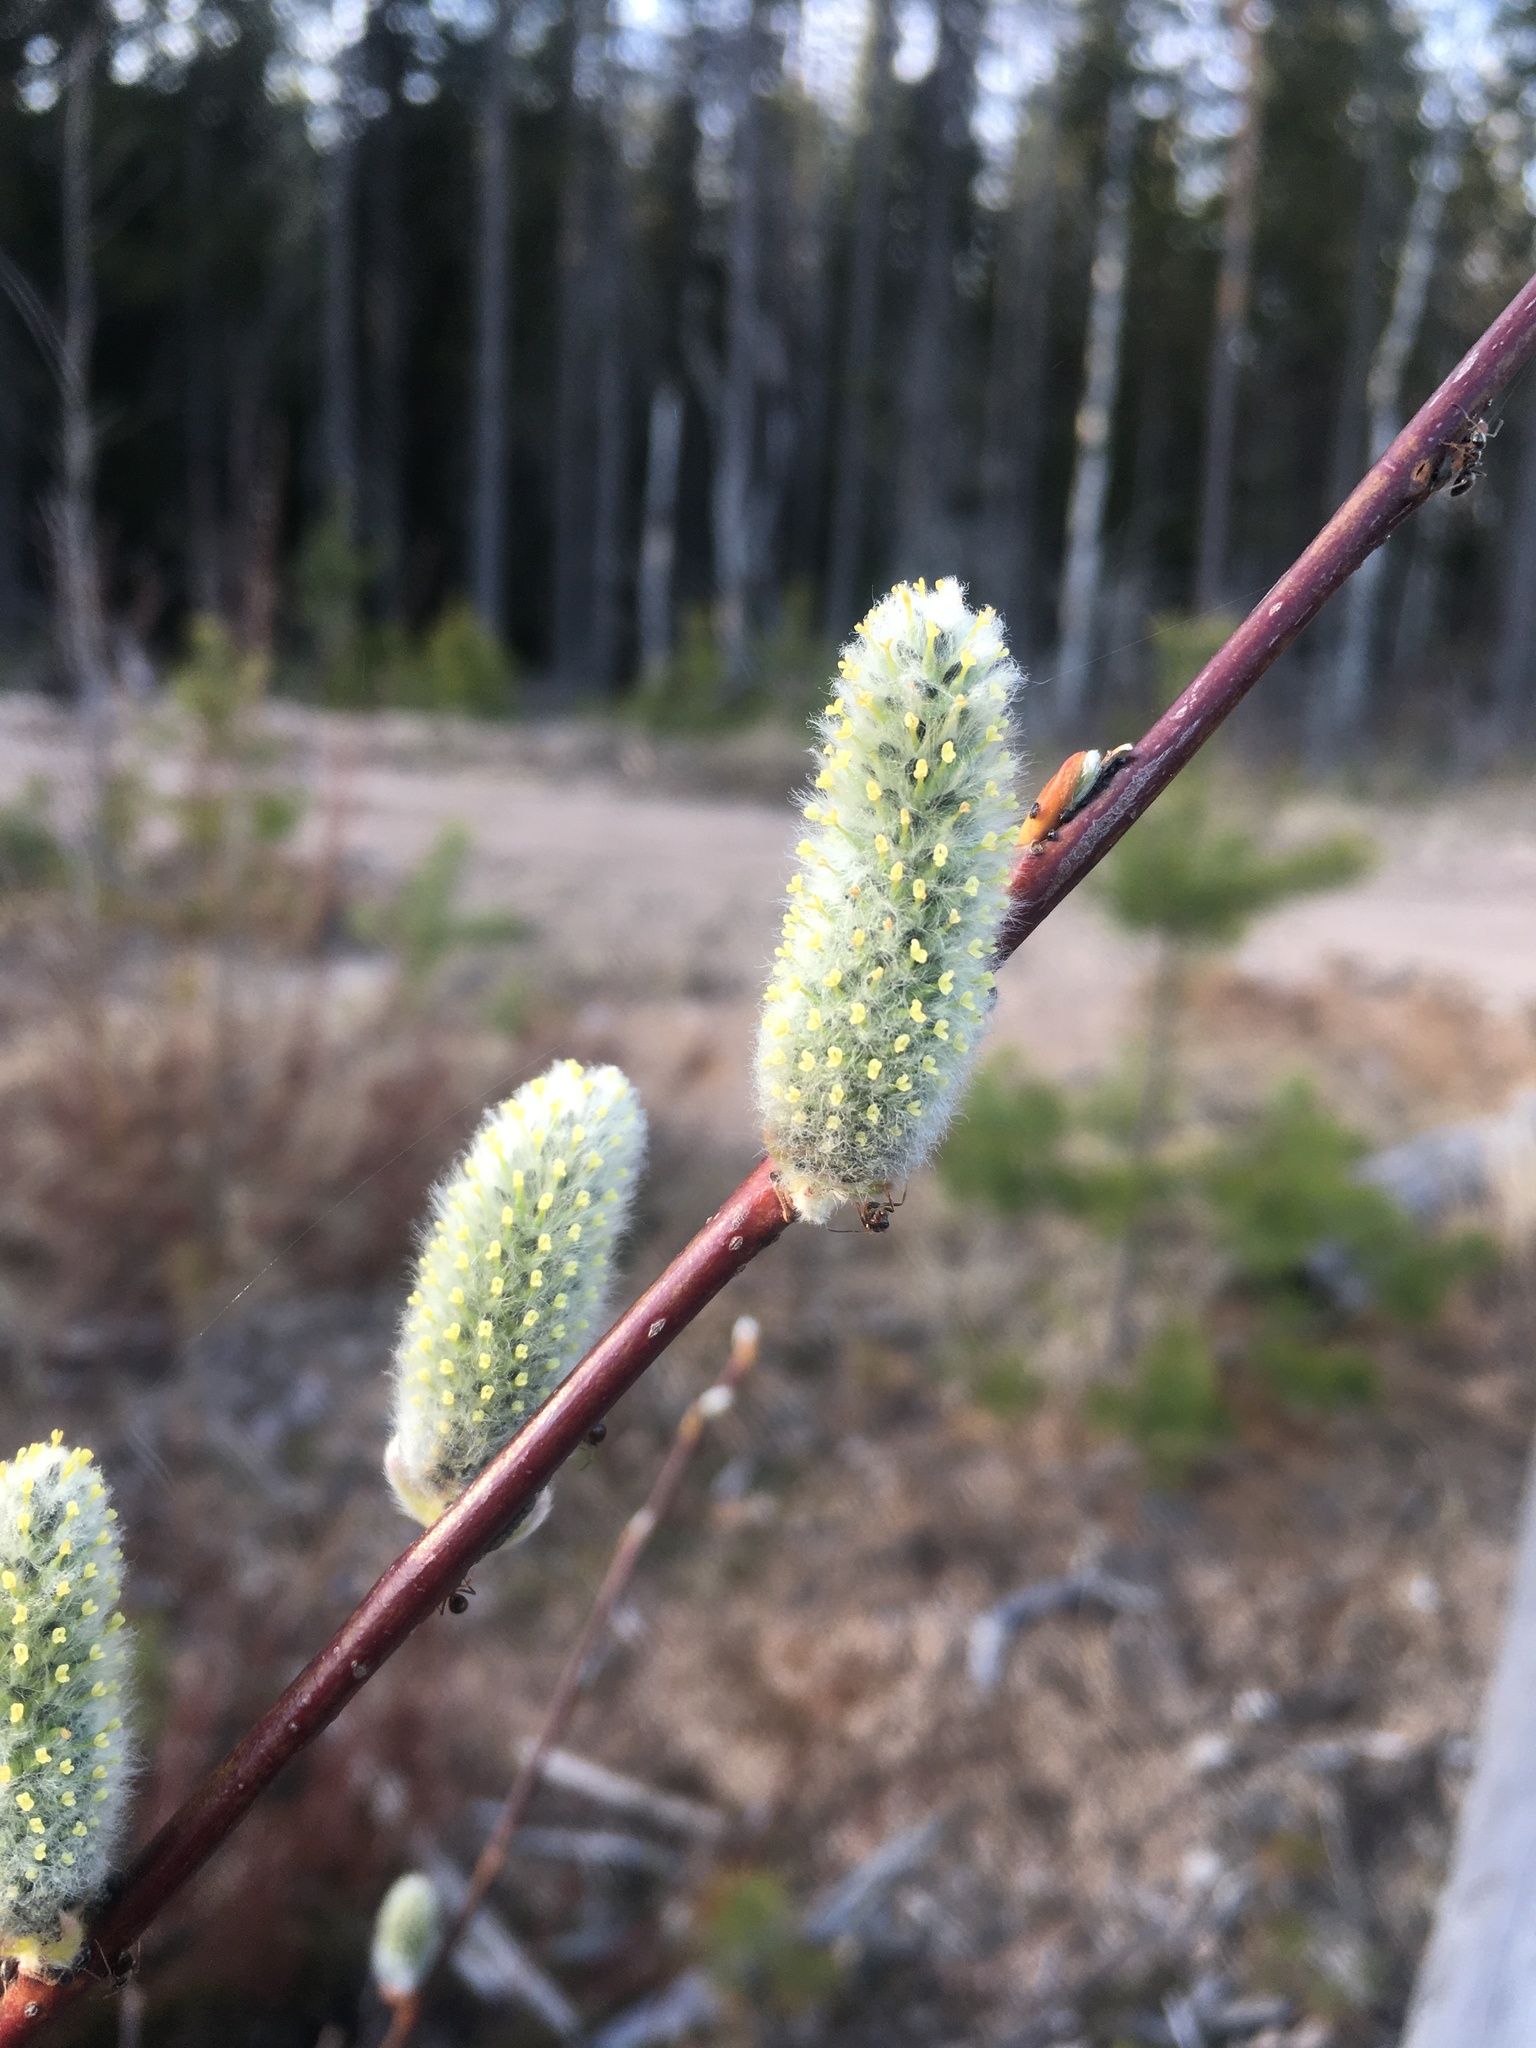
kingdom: Plantae
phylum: Tracheophyta
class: Magnoliopsida
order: Malpighiales
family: Salicaceae
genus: Salix
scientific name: Salix acutifolia
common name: Siberian violet-willow
